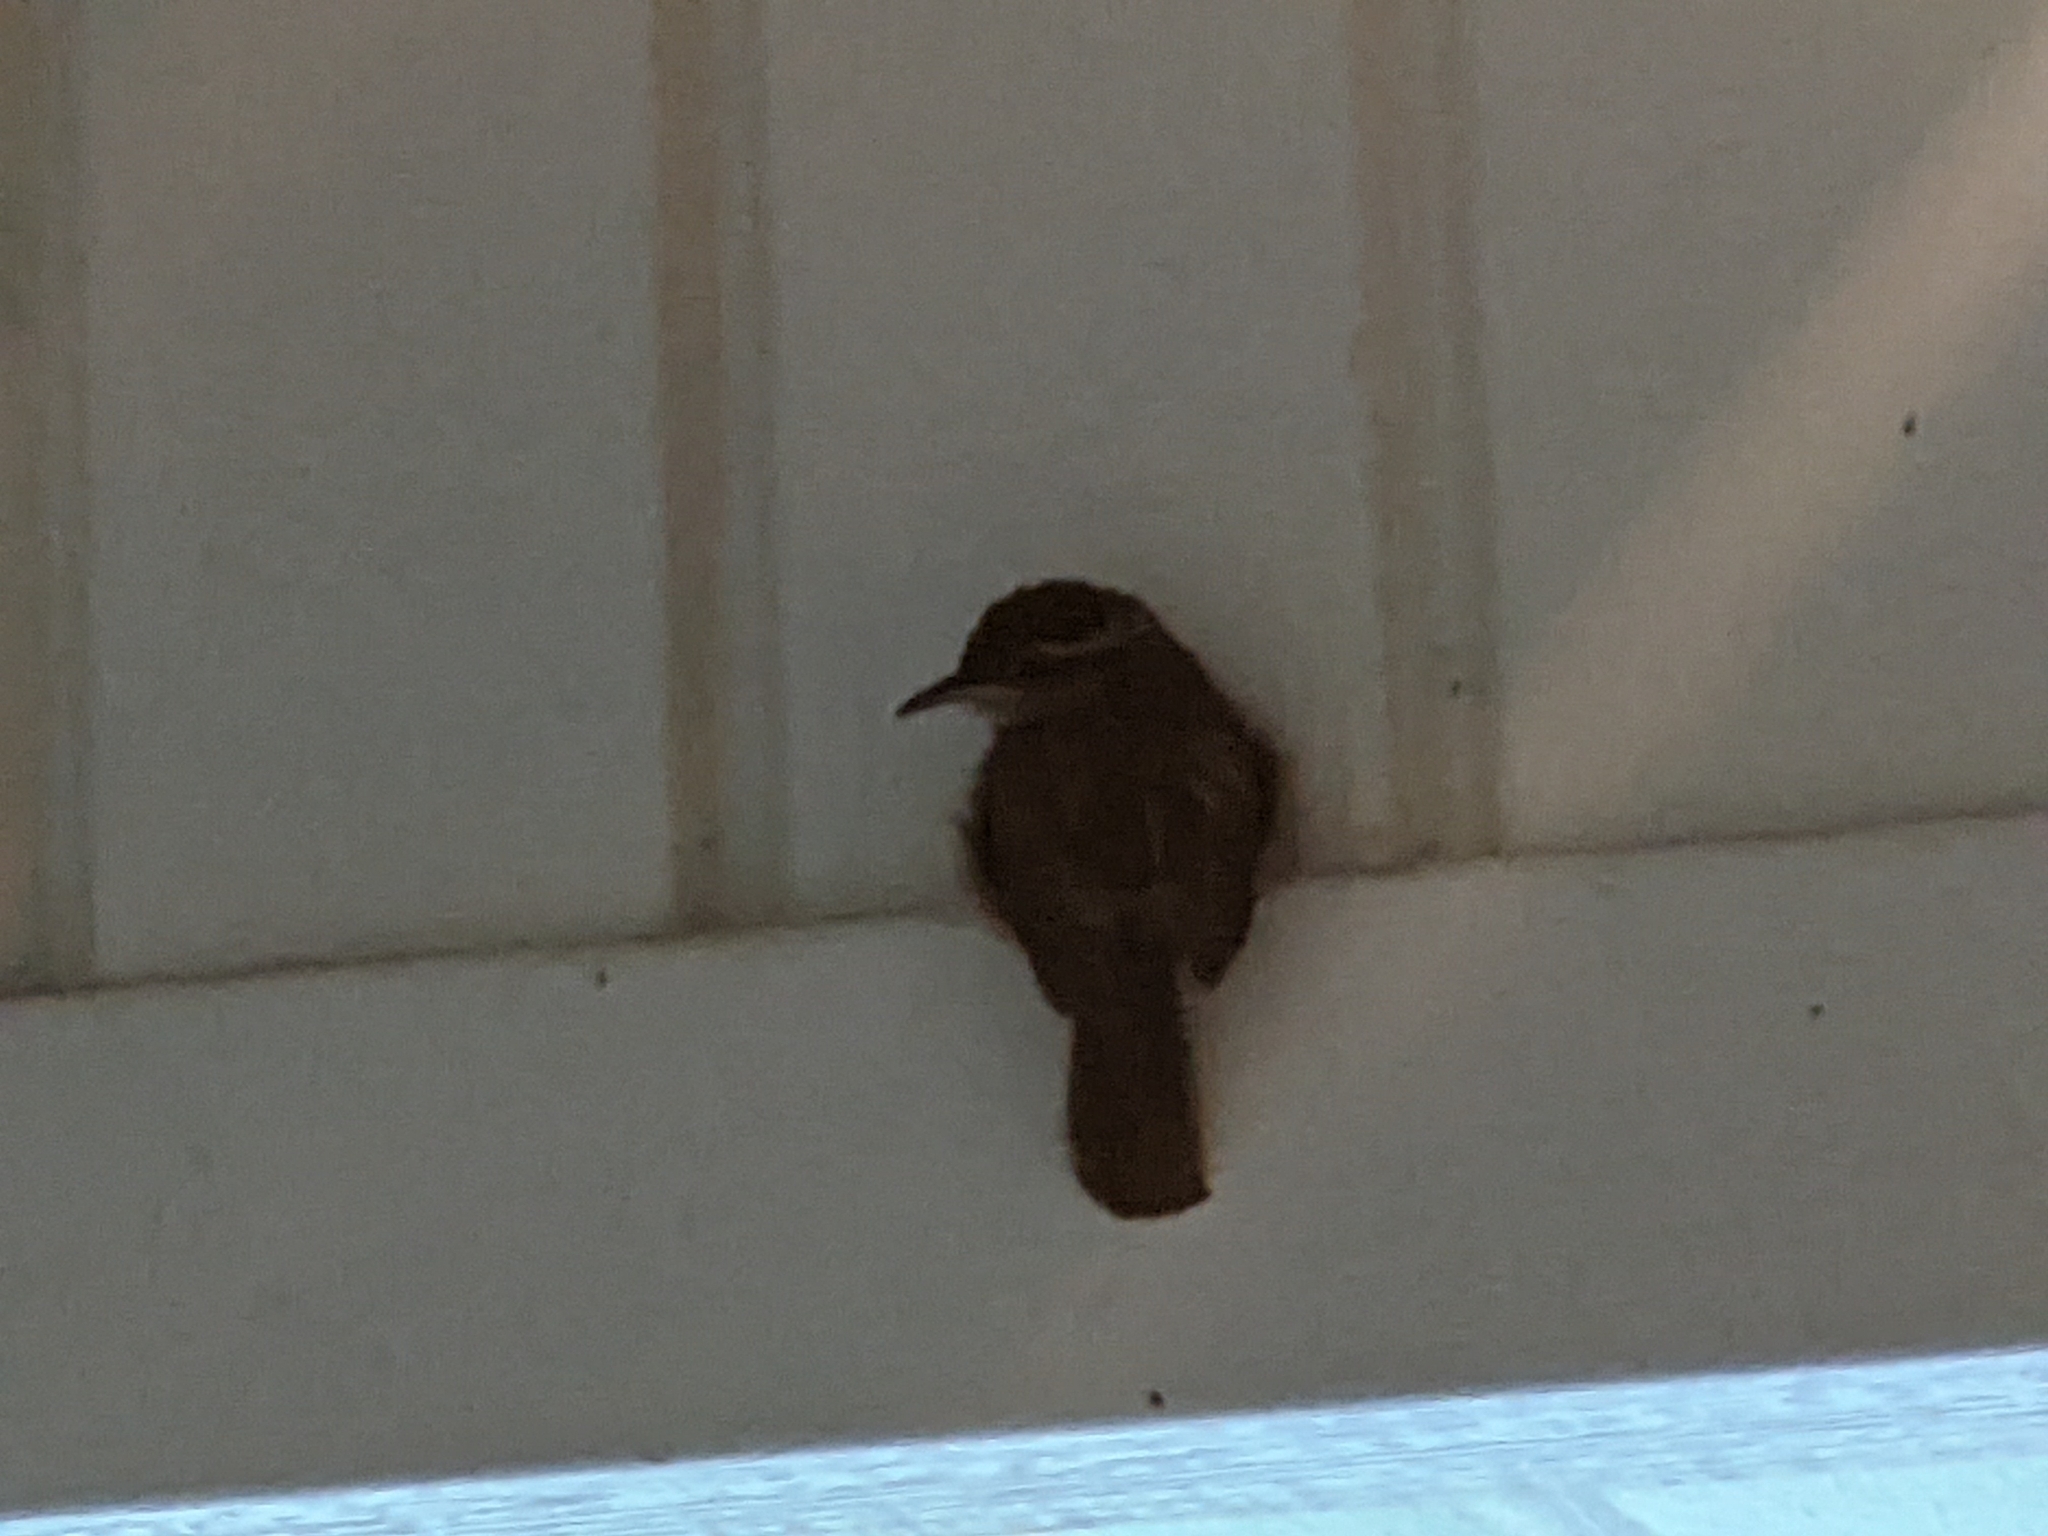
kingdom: Animalia
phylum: Chordata
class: Aves
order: Passeriformes
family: Troglodytidae
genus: Thryothorus
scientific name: Thryothorus ludovicianus
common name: Carolina wren
